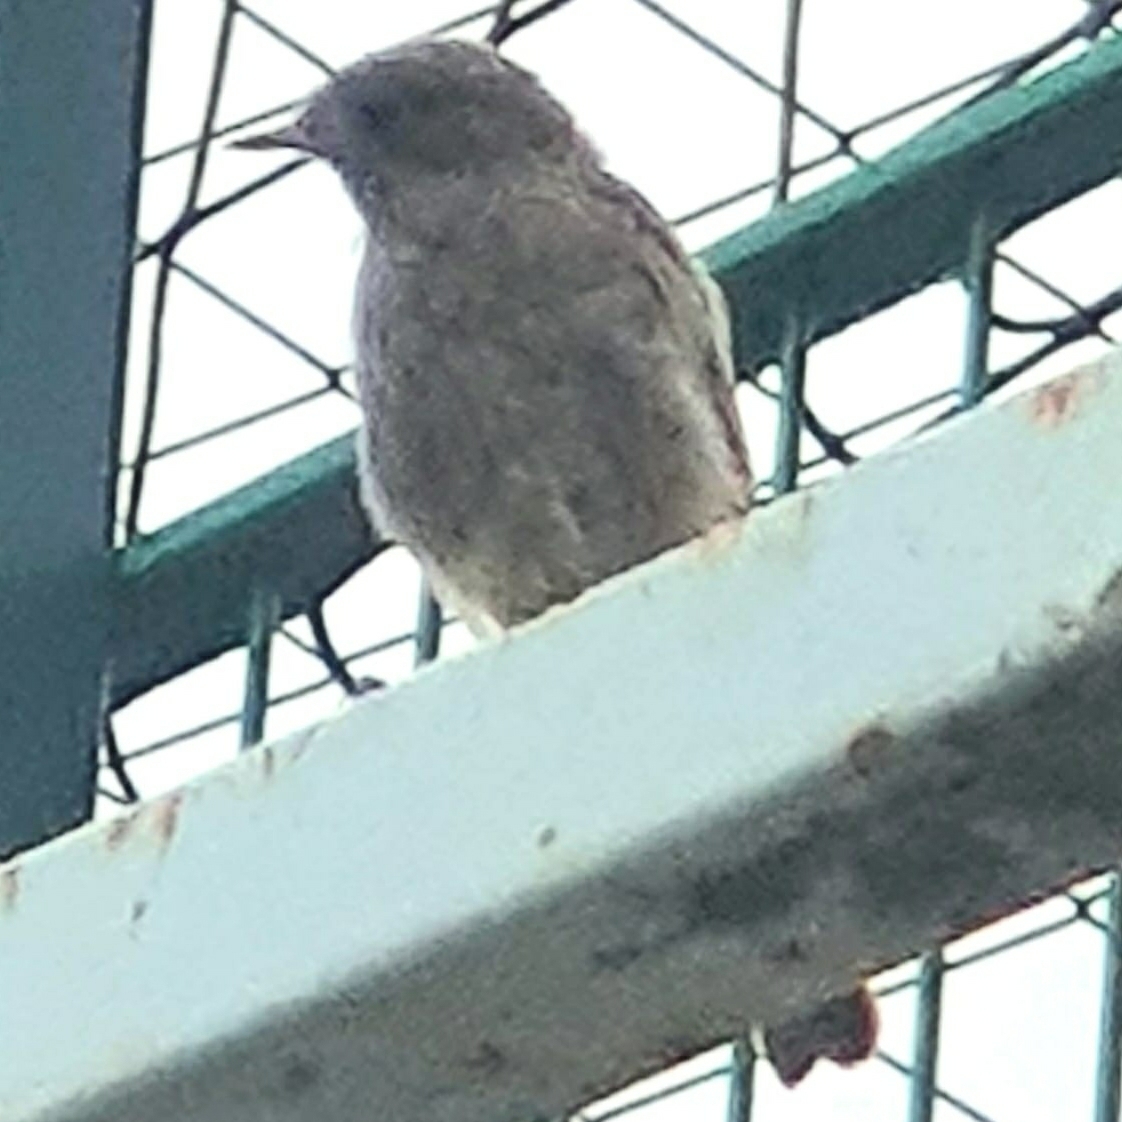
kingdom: Animalia
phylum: Chordata
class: Aves
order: Passeriformes
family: Muscicapidae
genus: Phoenicurus
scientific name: Phoenicurus ochruros
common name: Black redstart
